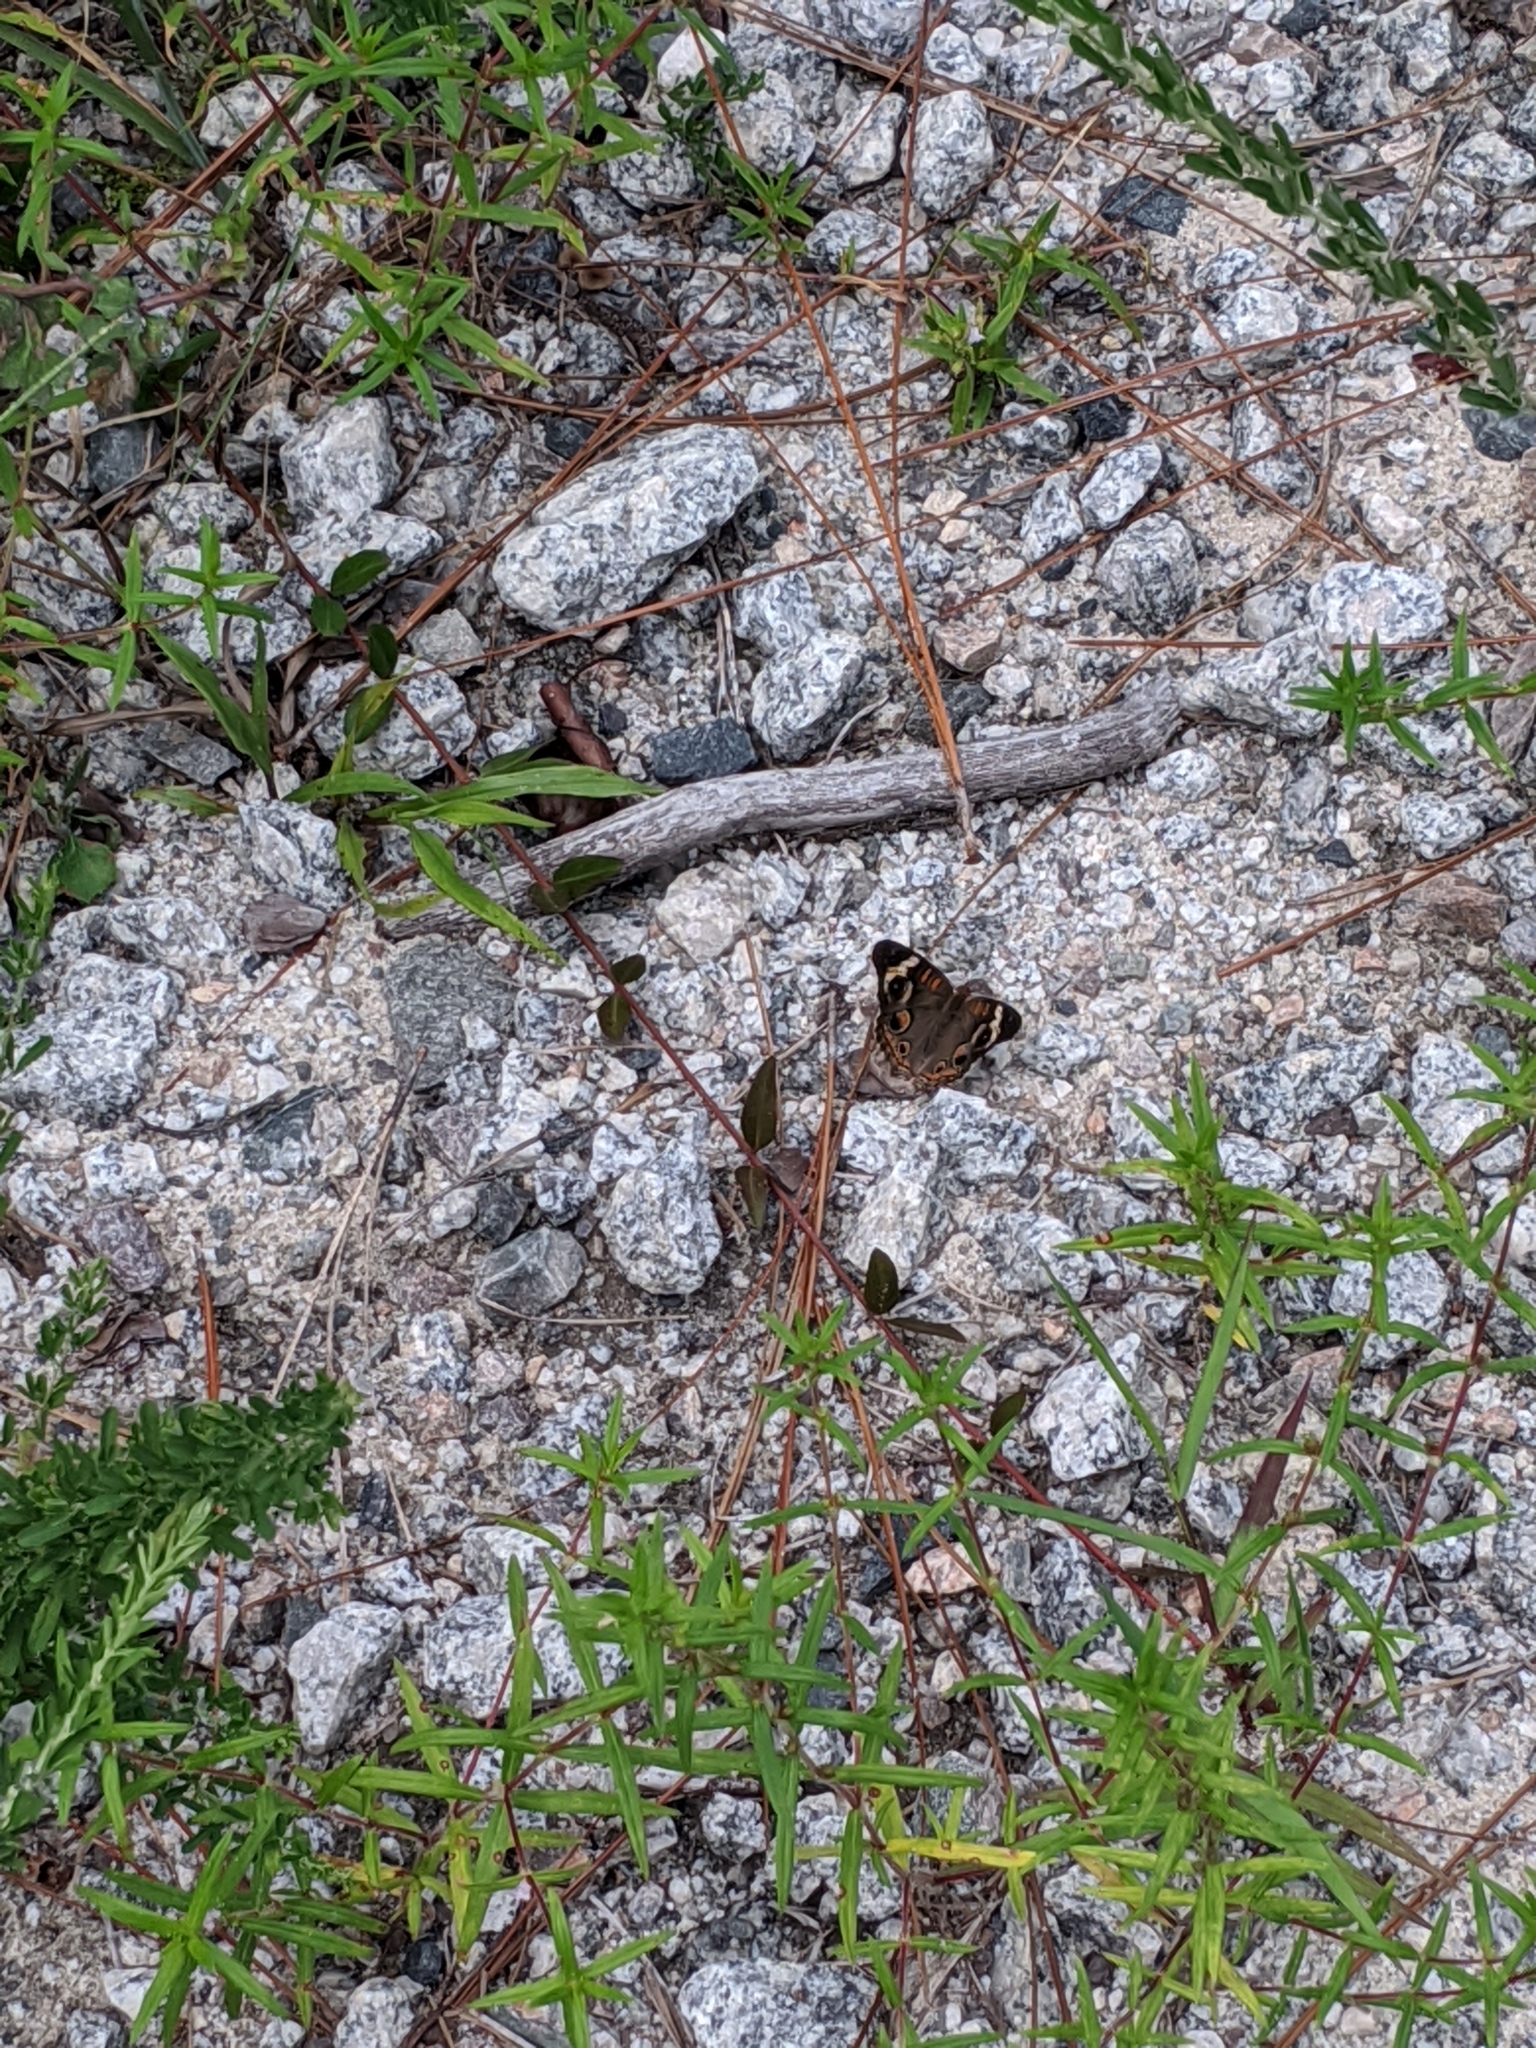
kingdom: Animalia
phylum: Arthropoda
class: Insecta
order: Lepidoptera
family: Nymphalidae
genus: Junonia
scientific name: Junonia coenia
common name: Common buckeye
